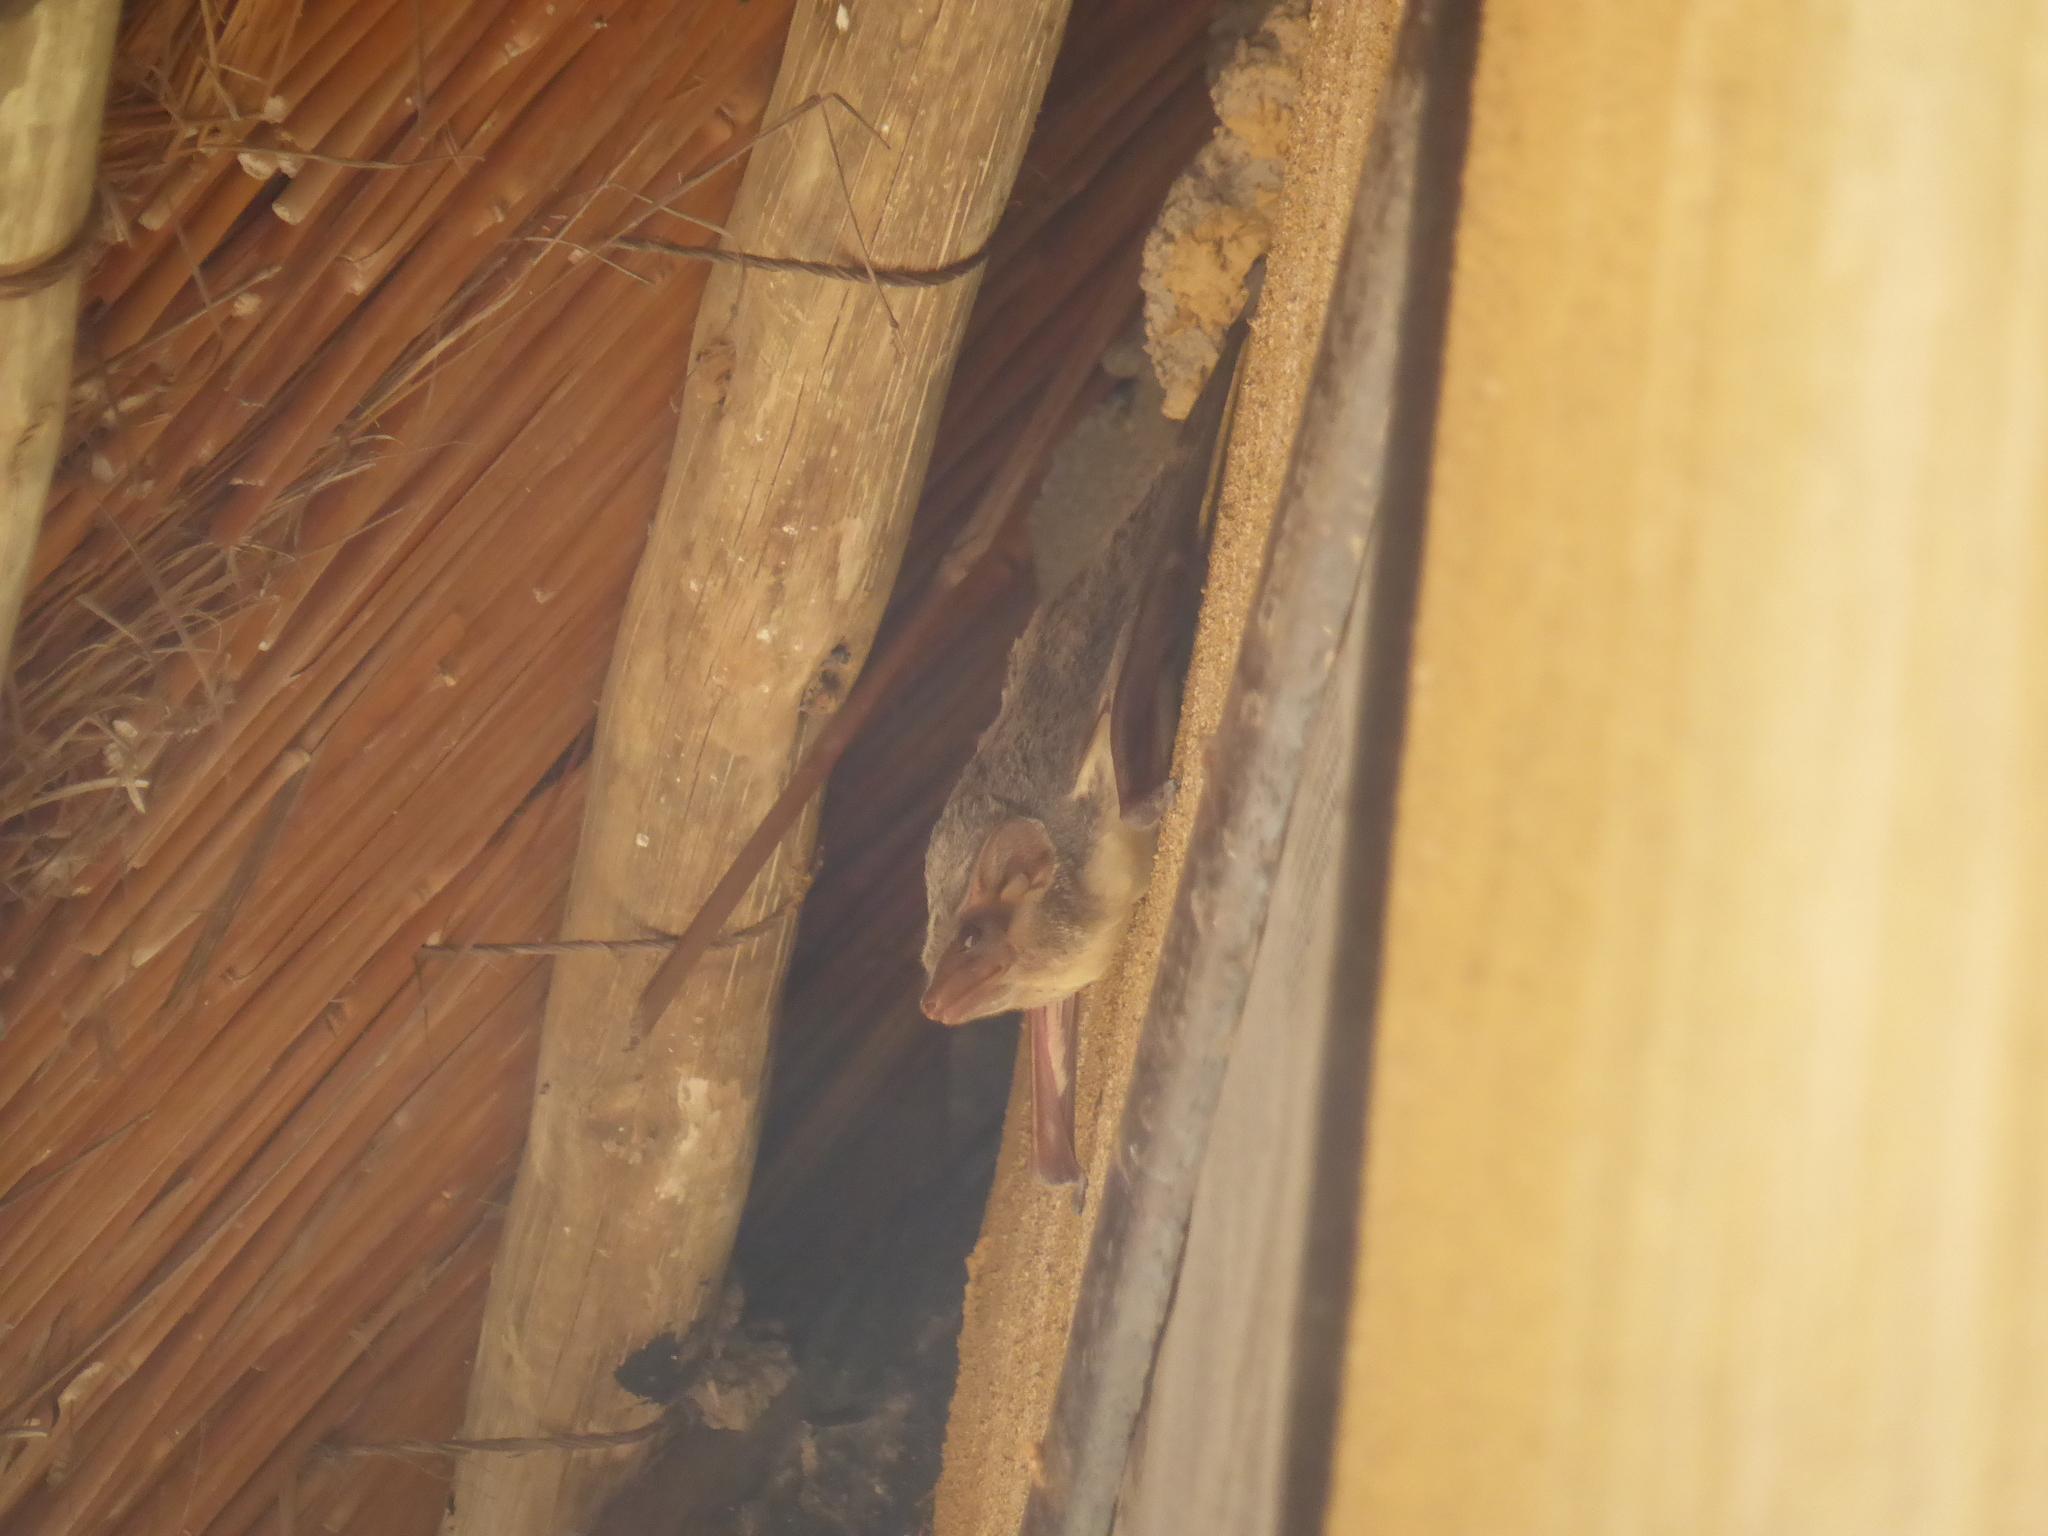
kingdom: Animalia
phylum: Chordata
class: Mammalia
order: Chiroptera
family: Emballonuridae
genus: Taphozous
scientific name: Taphozous mauritianus
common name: Mauritian tomb bat
